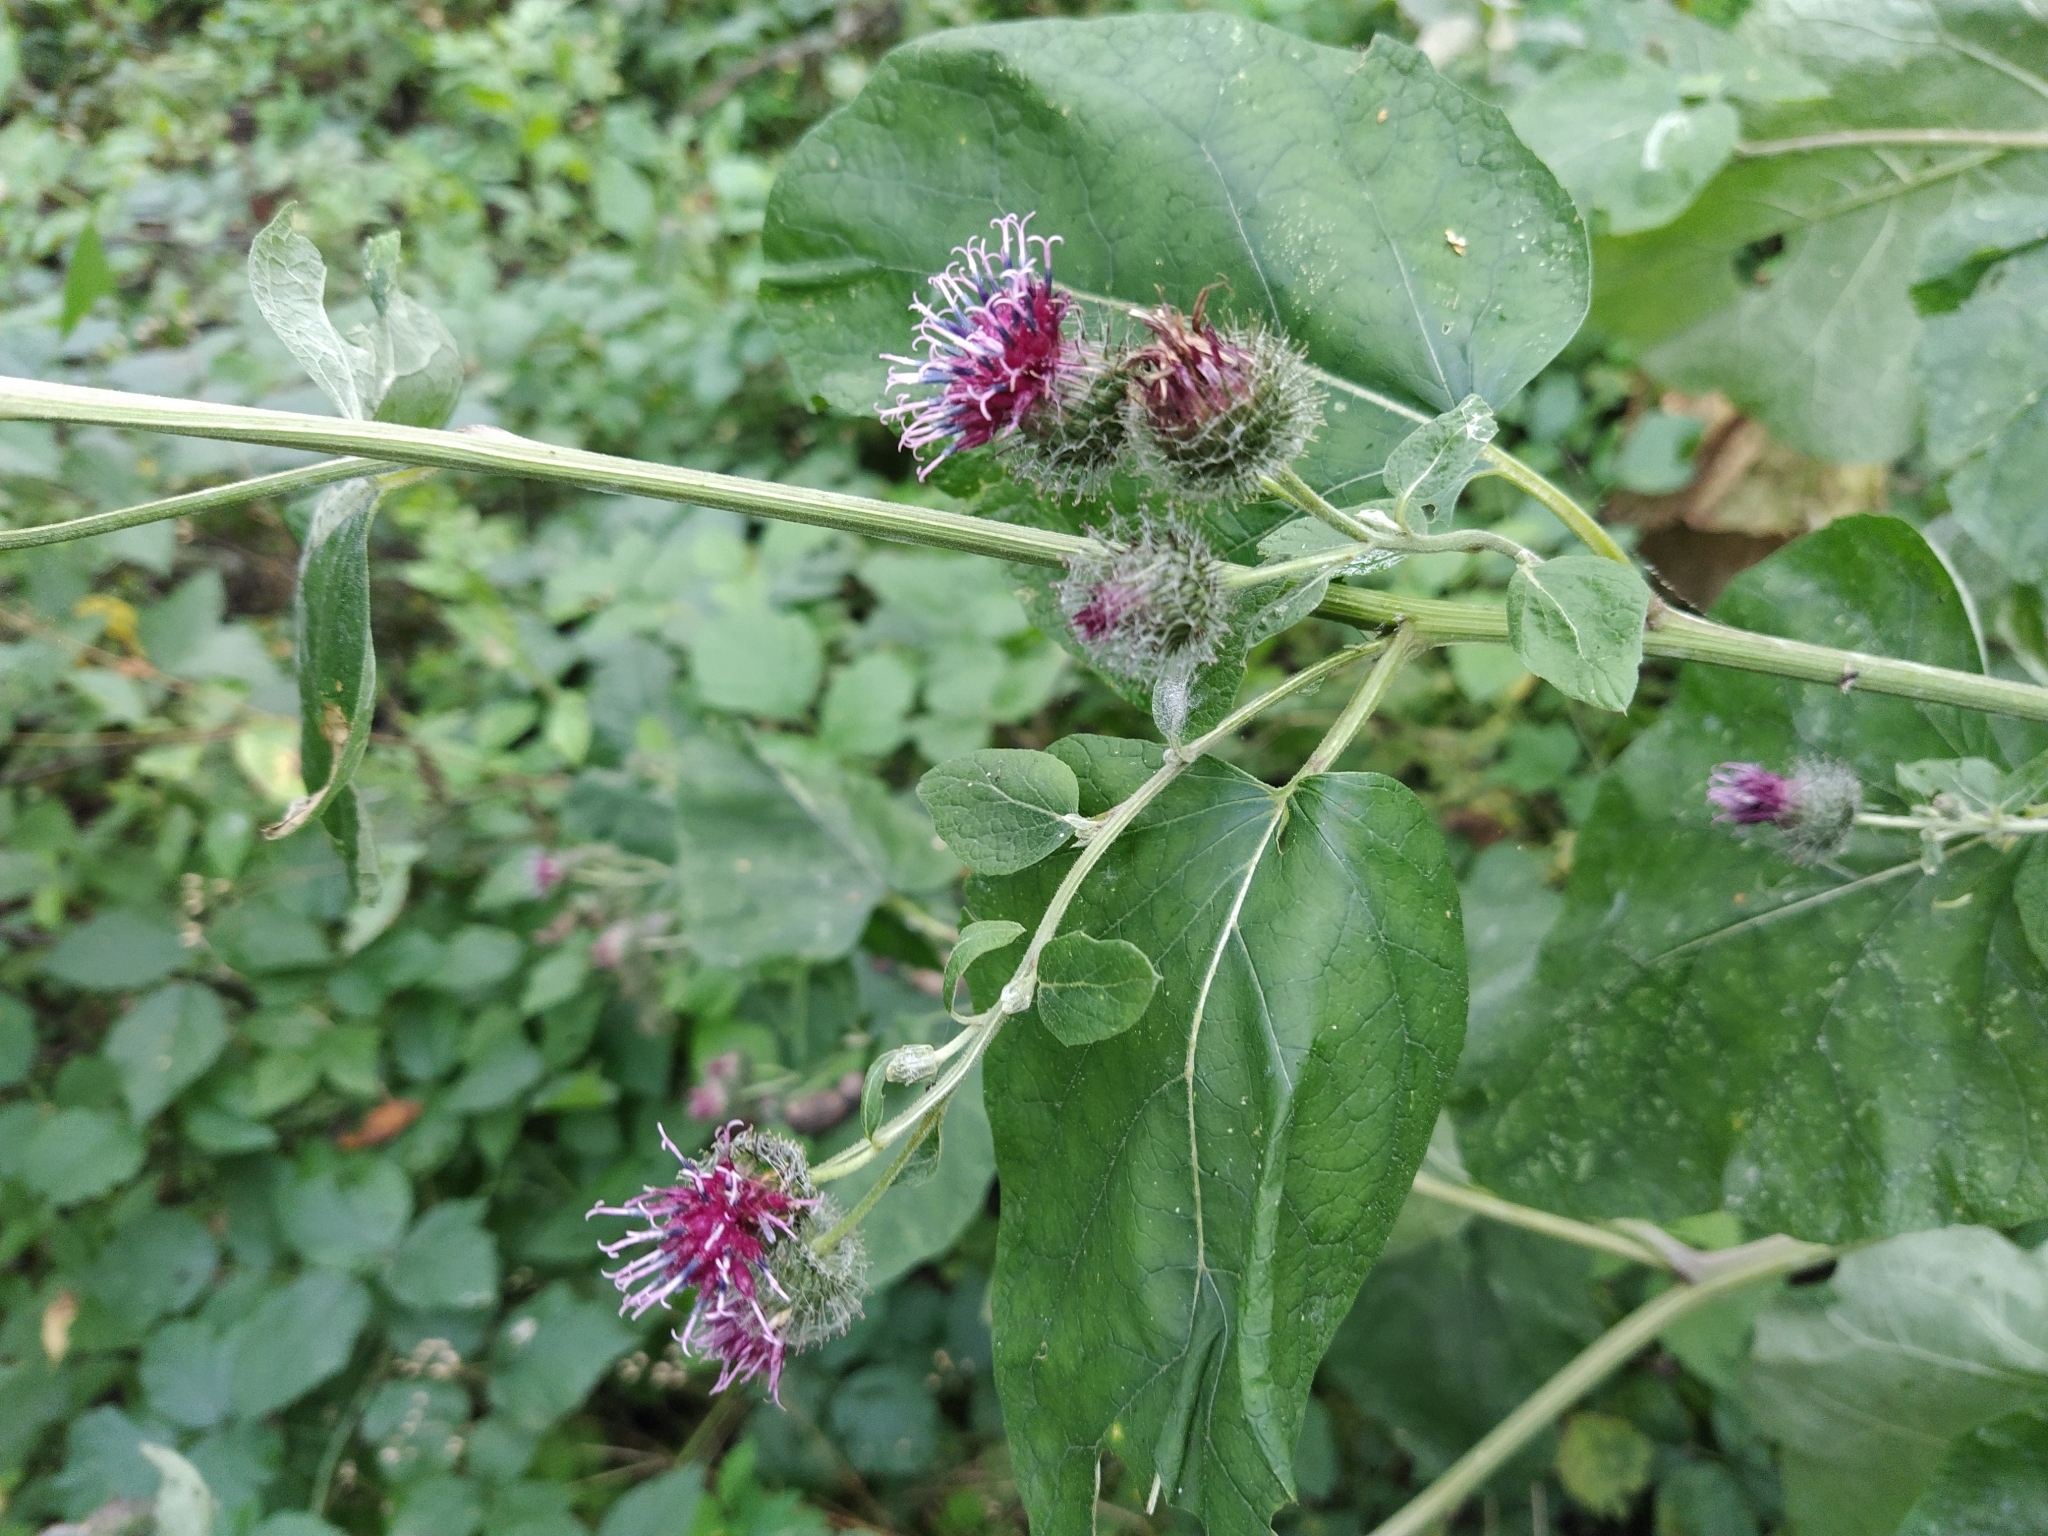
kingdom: Plantae
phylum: Tracheophyta
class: Magnoliopsida
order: Asterales
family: Asteraceae
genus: Arctium
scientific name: Arctium tomentosum
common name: Woolly burdock
